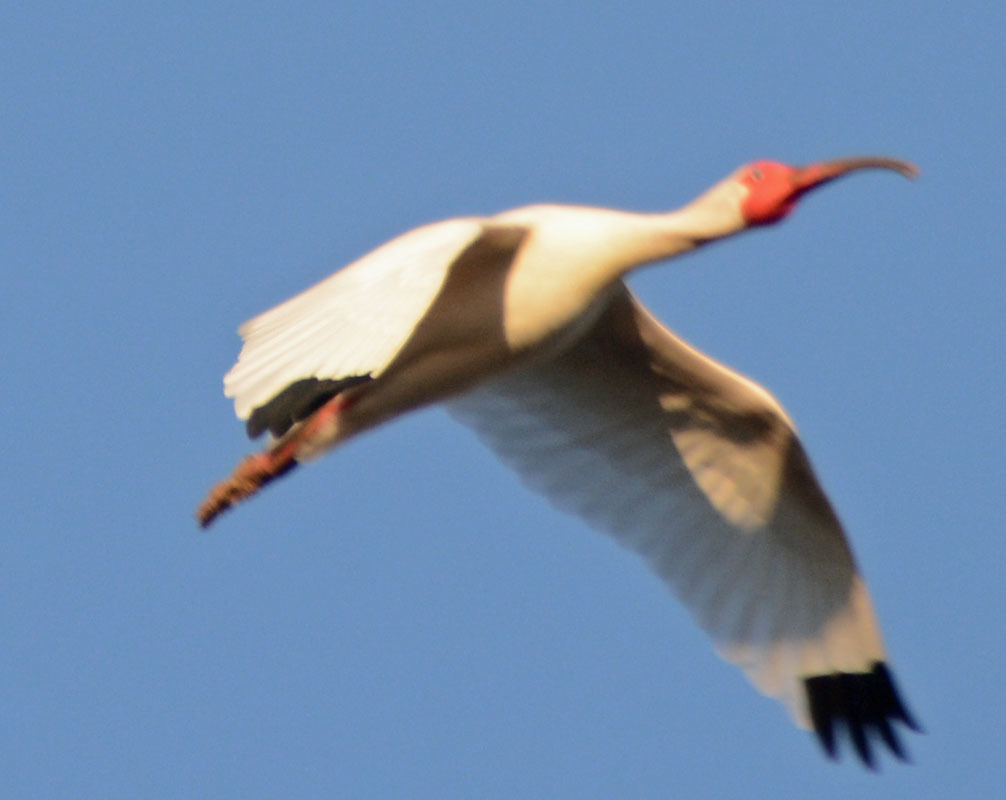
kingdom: Animalia
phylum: Chordata
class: Aves
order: Pelecaniformes
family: Threskiornithidae
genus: Eudocimus
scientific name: Eudocimus albus
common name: White ibis
